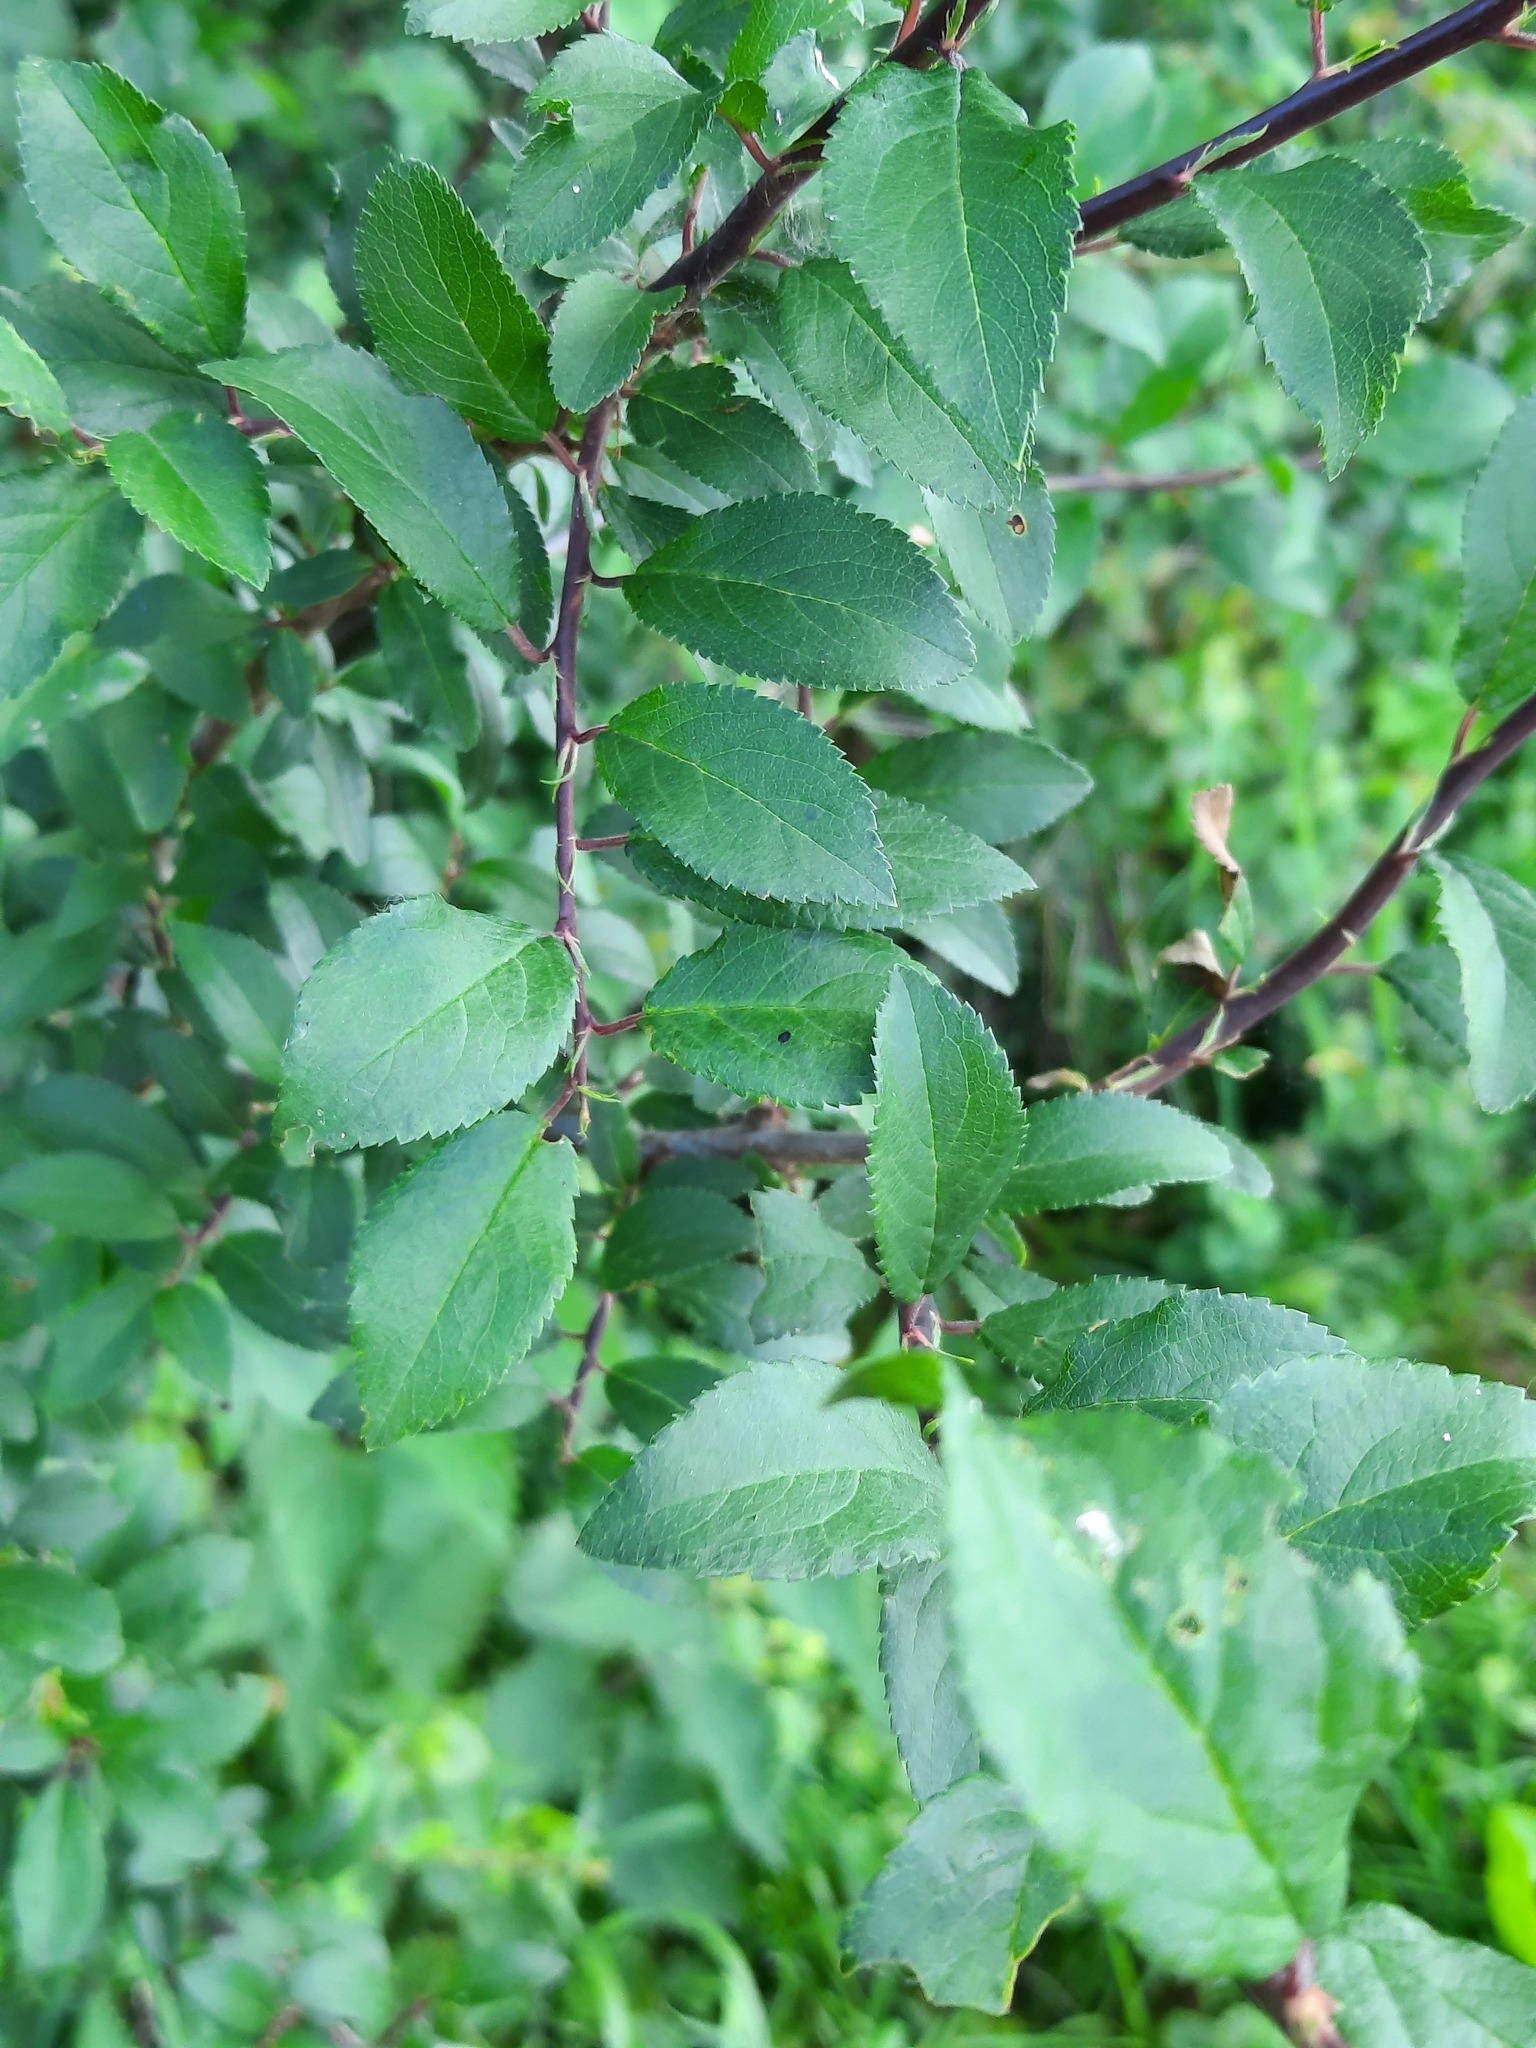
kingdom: Plantae
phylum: Tracheophyta
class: Magnoliopsida
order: Rosales
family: Rosaceae
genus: Prunus
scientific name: Prunus spinosa
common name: Blackthorn
